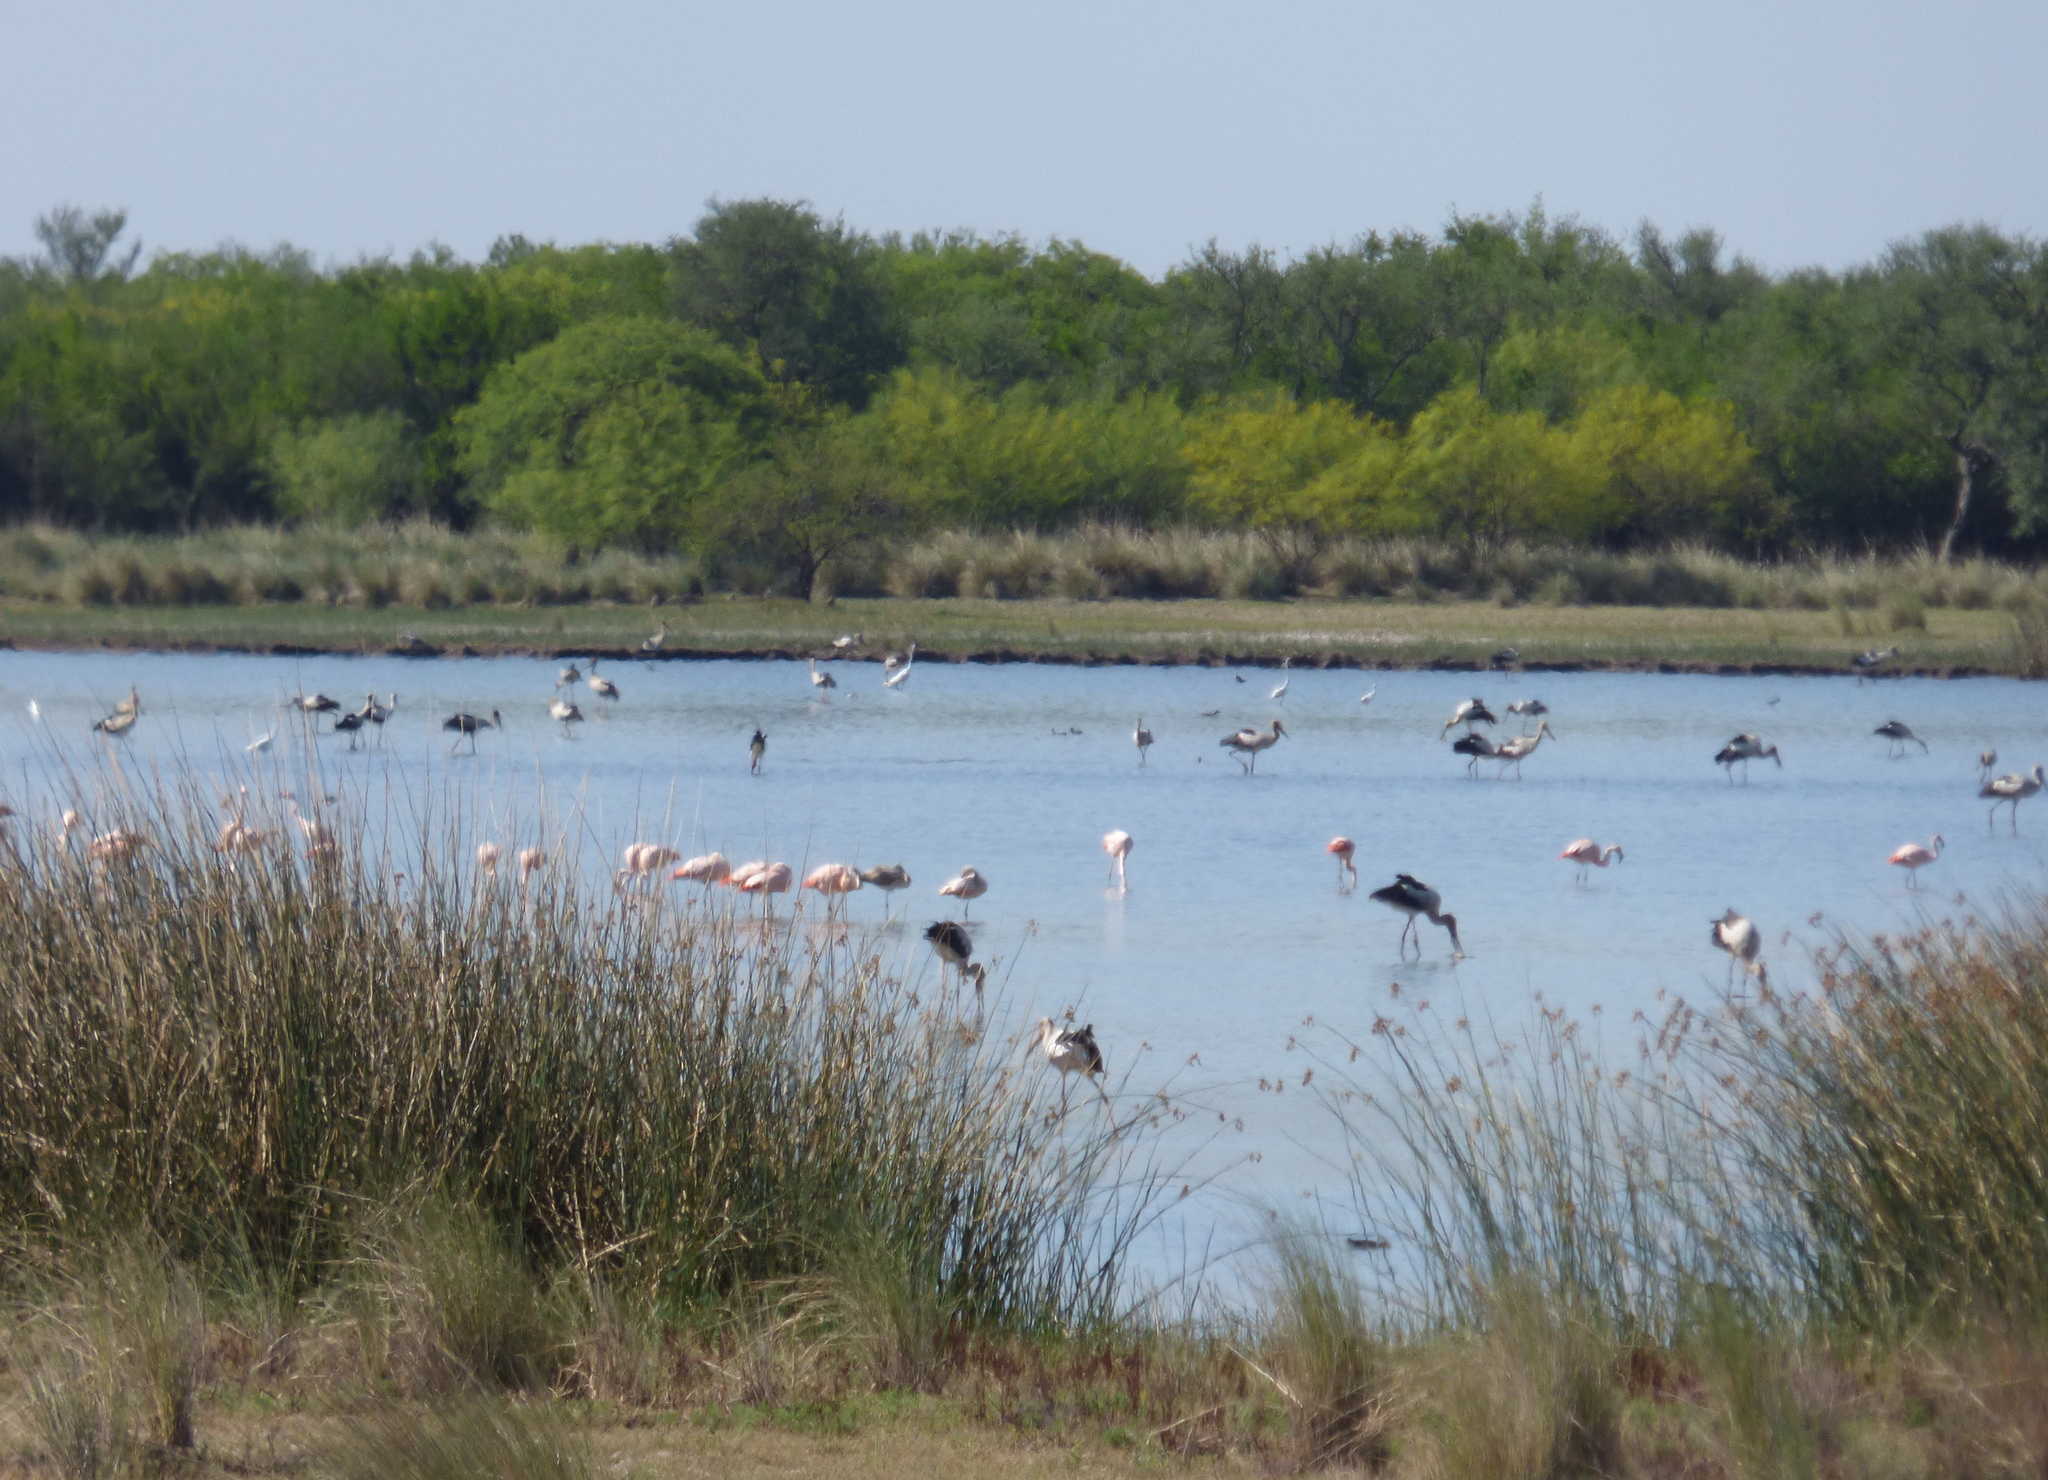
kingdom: Animalia
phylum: Chordata
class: Aves
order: Phoenicopteriformes
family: Phoenicopteridae
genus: Phoenicopterus
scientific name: Phoenicopterus chilensis
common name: Chilean flamingo
